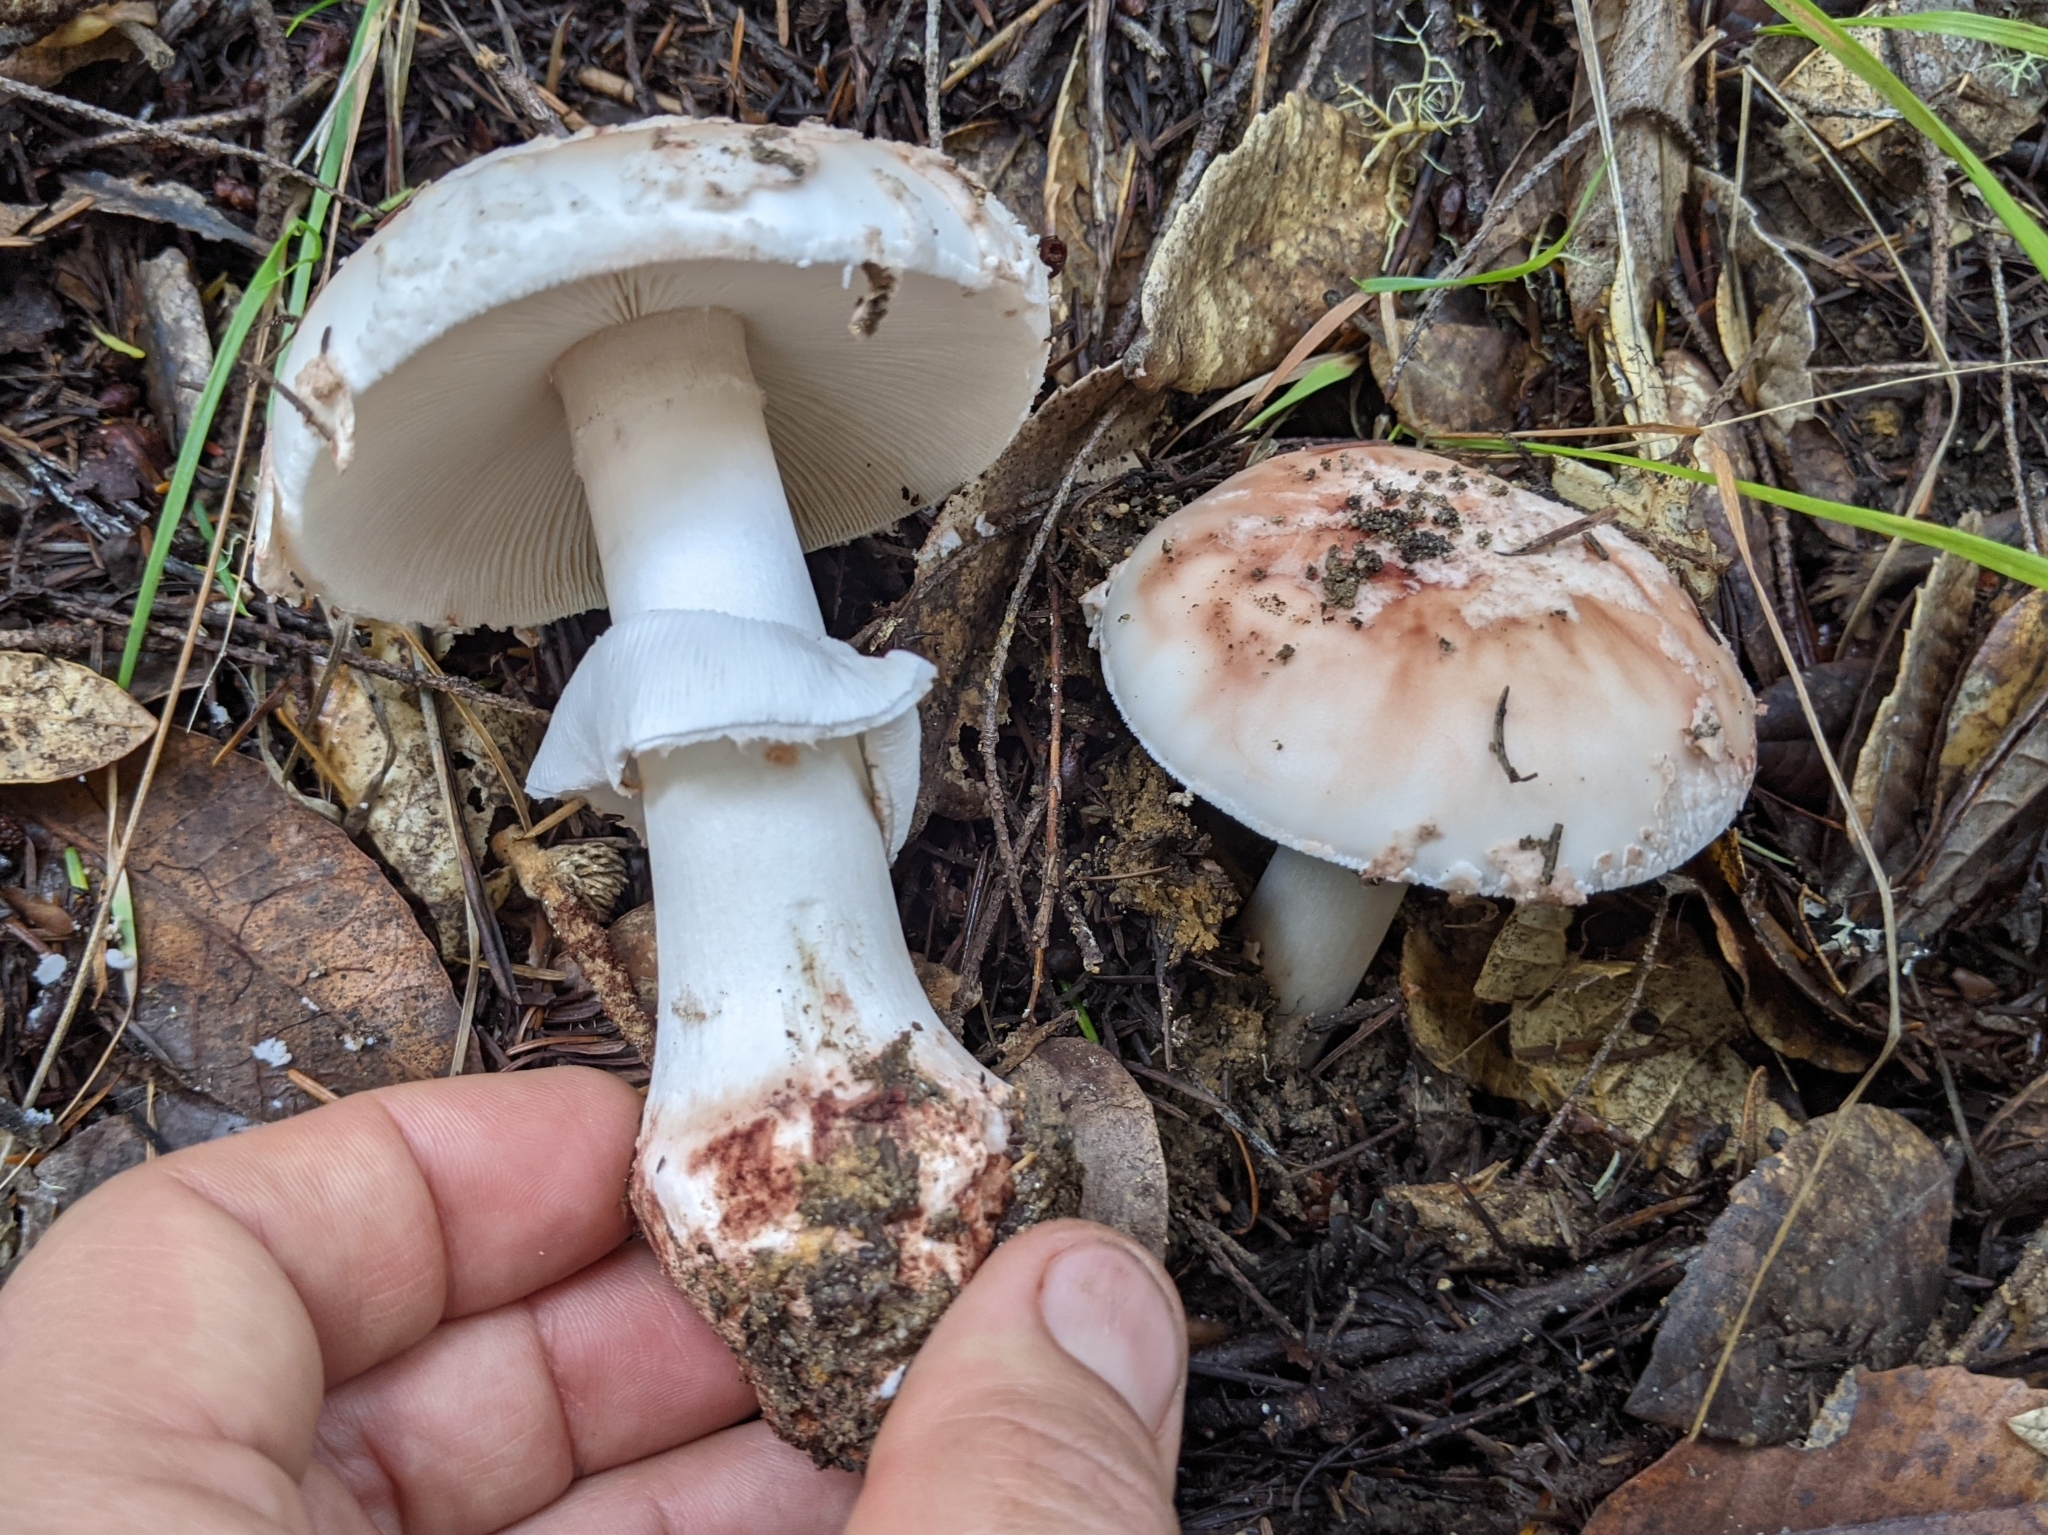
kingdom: Fungi
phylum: Basidiomycota
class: Agaricomycetes
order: Agaricales
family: Amanitaceae
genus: Amanita
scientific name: Amanita novinupta
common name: Blushing bride
